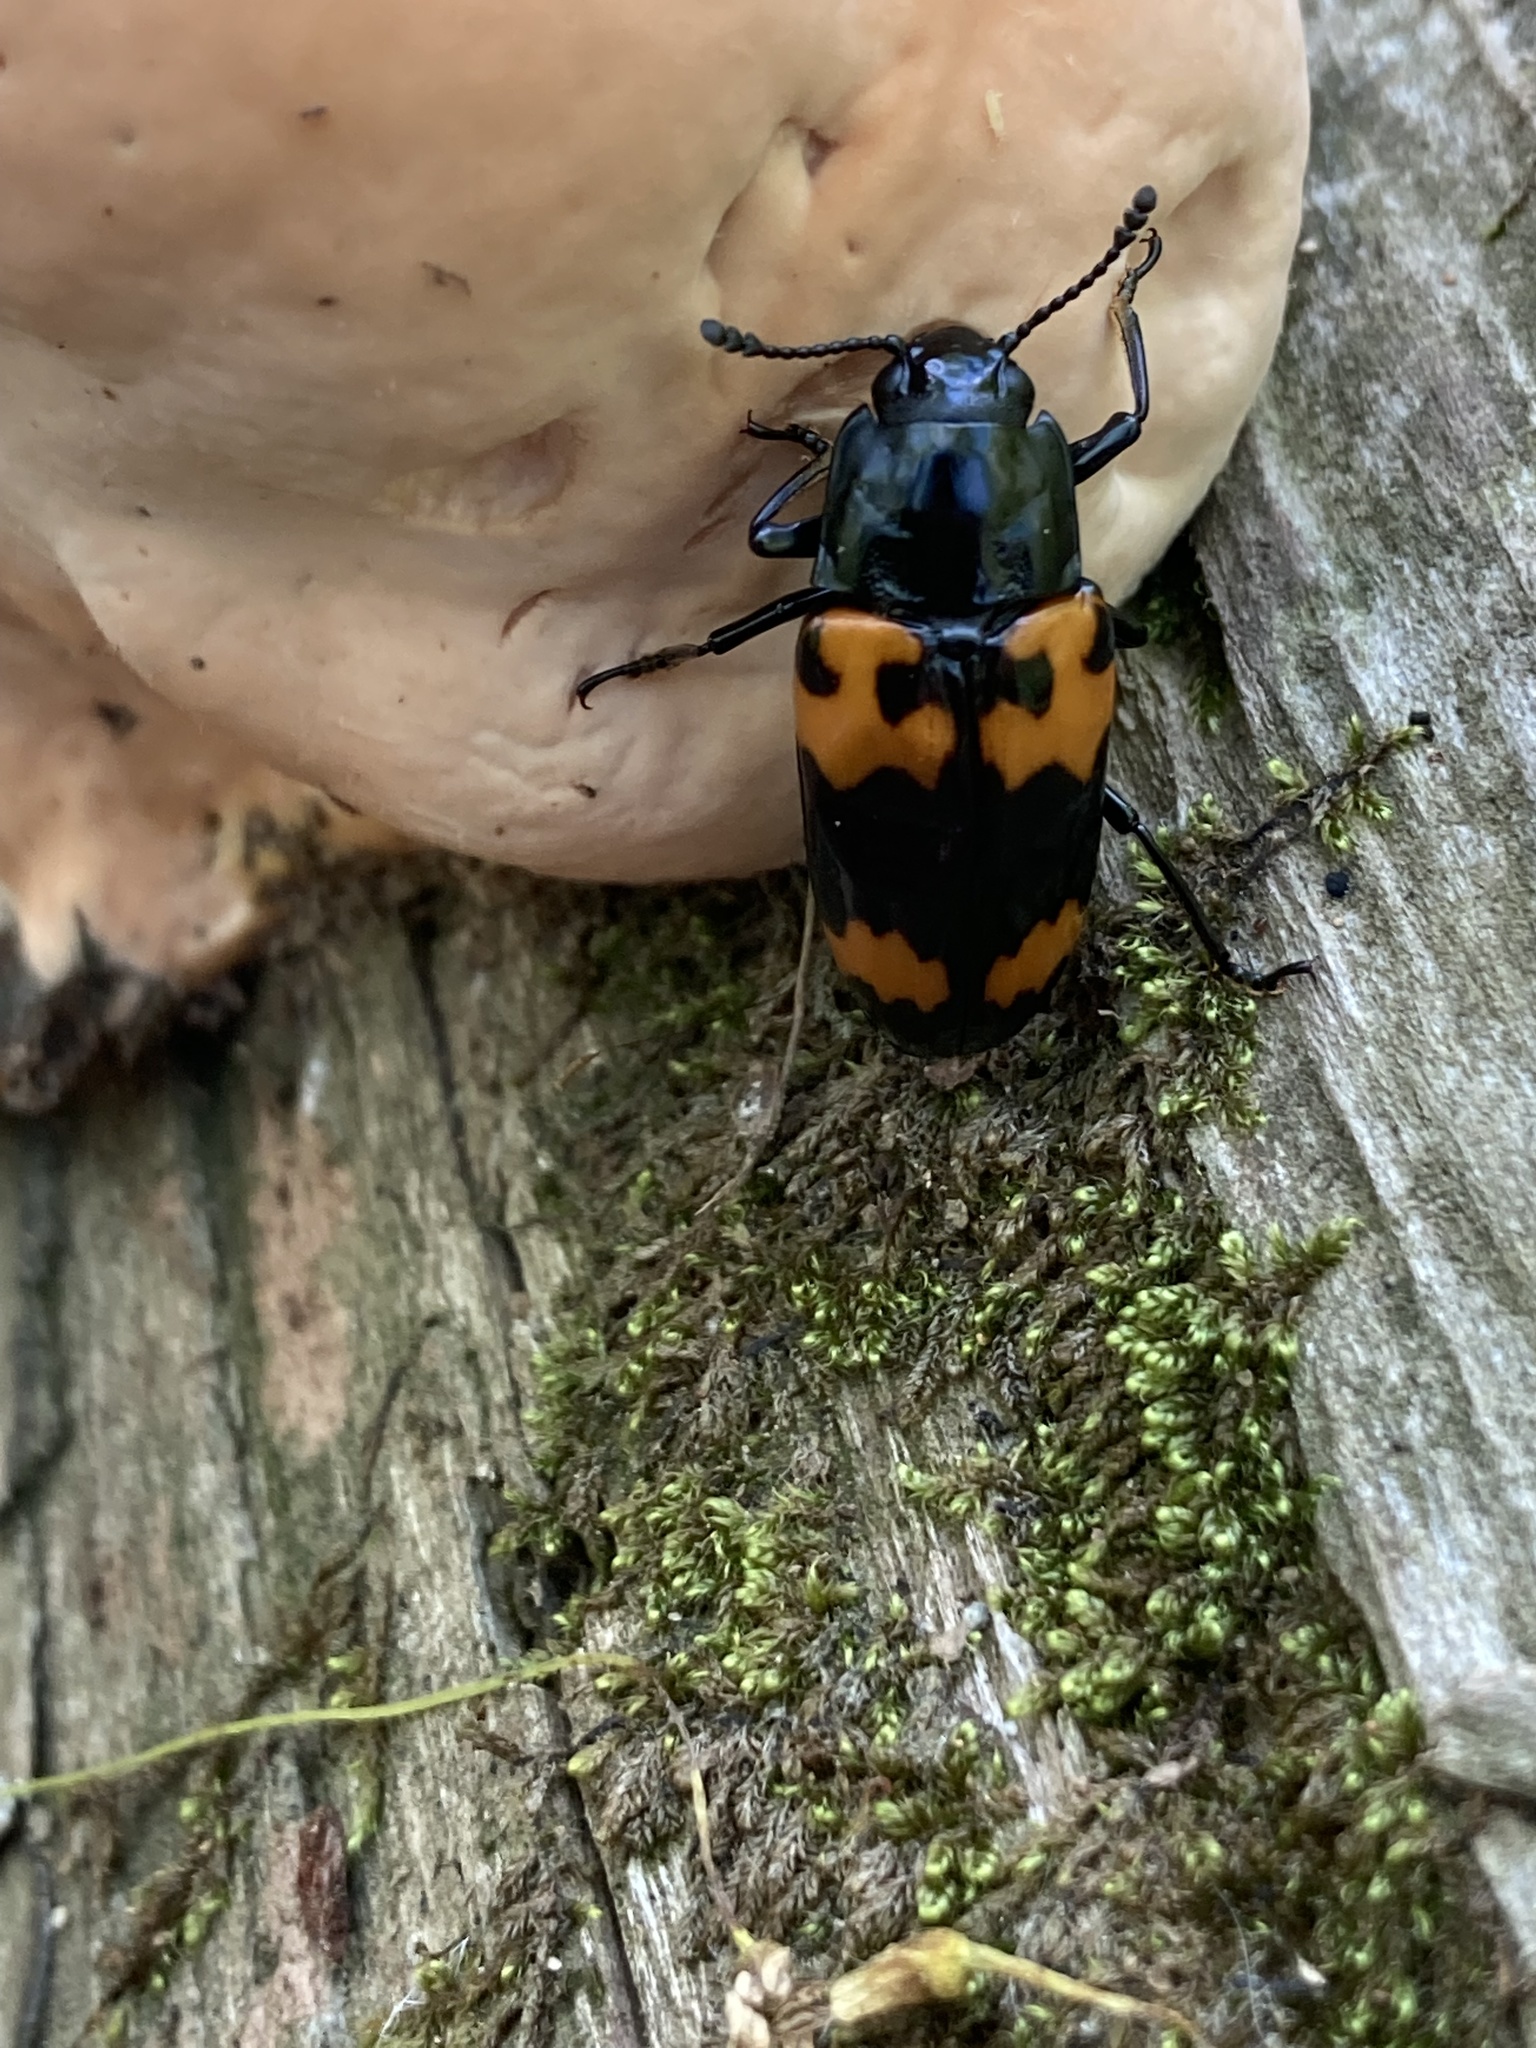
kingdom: Animalia
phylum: Arthropoda
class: Insecta
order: Coleoptera
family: Erotylidae
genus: Megalodacne
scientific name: Megalodacne heros
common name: Pleasing fungus beetle
